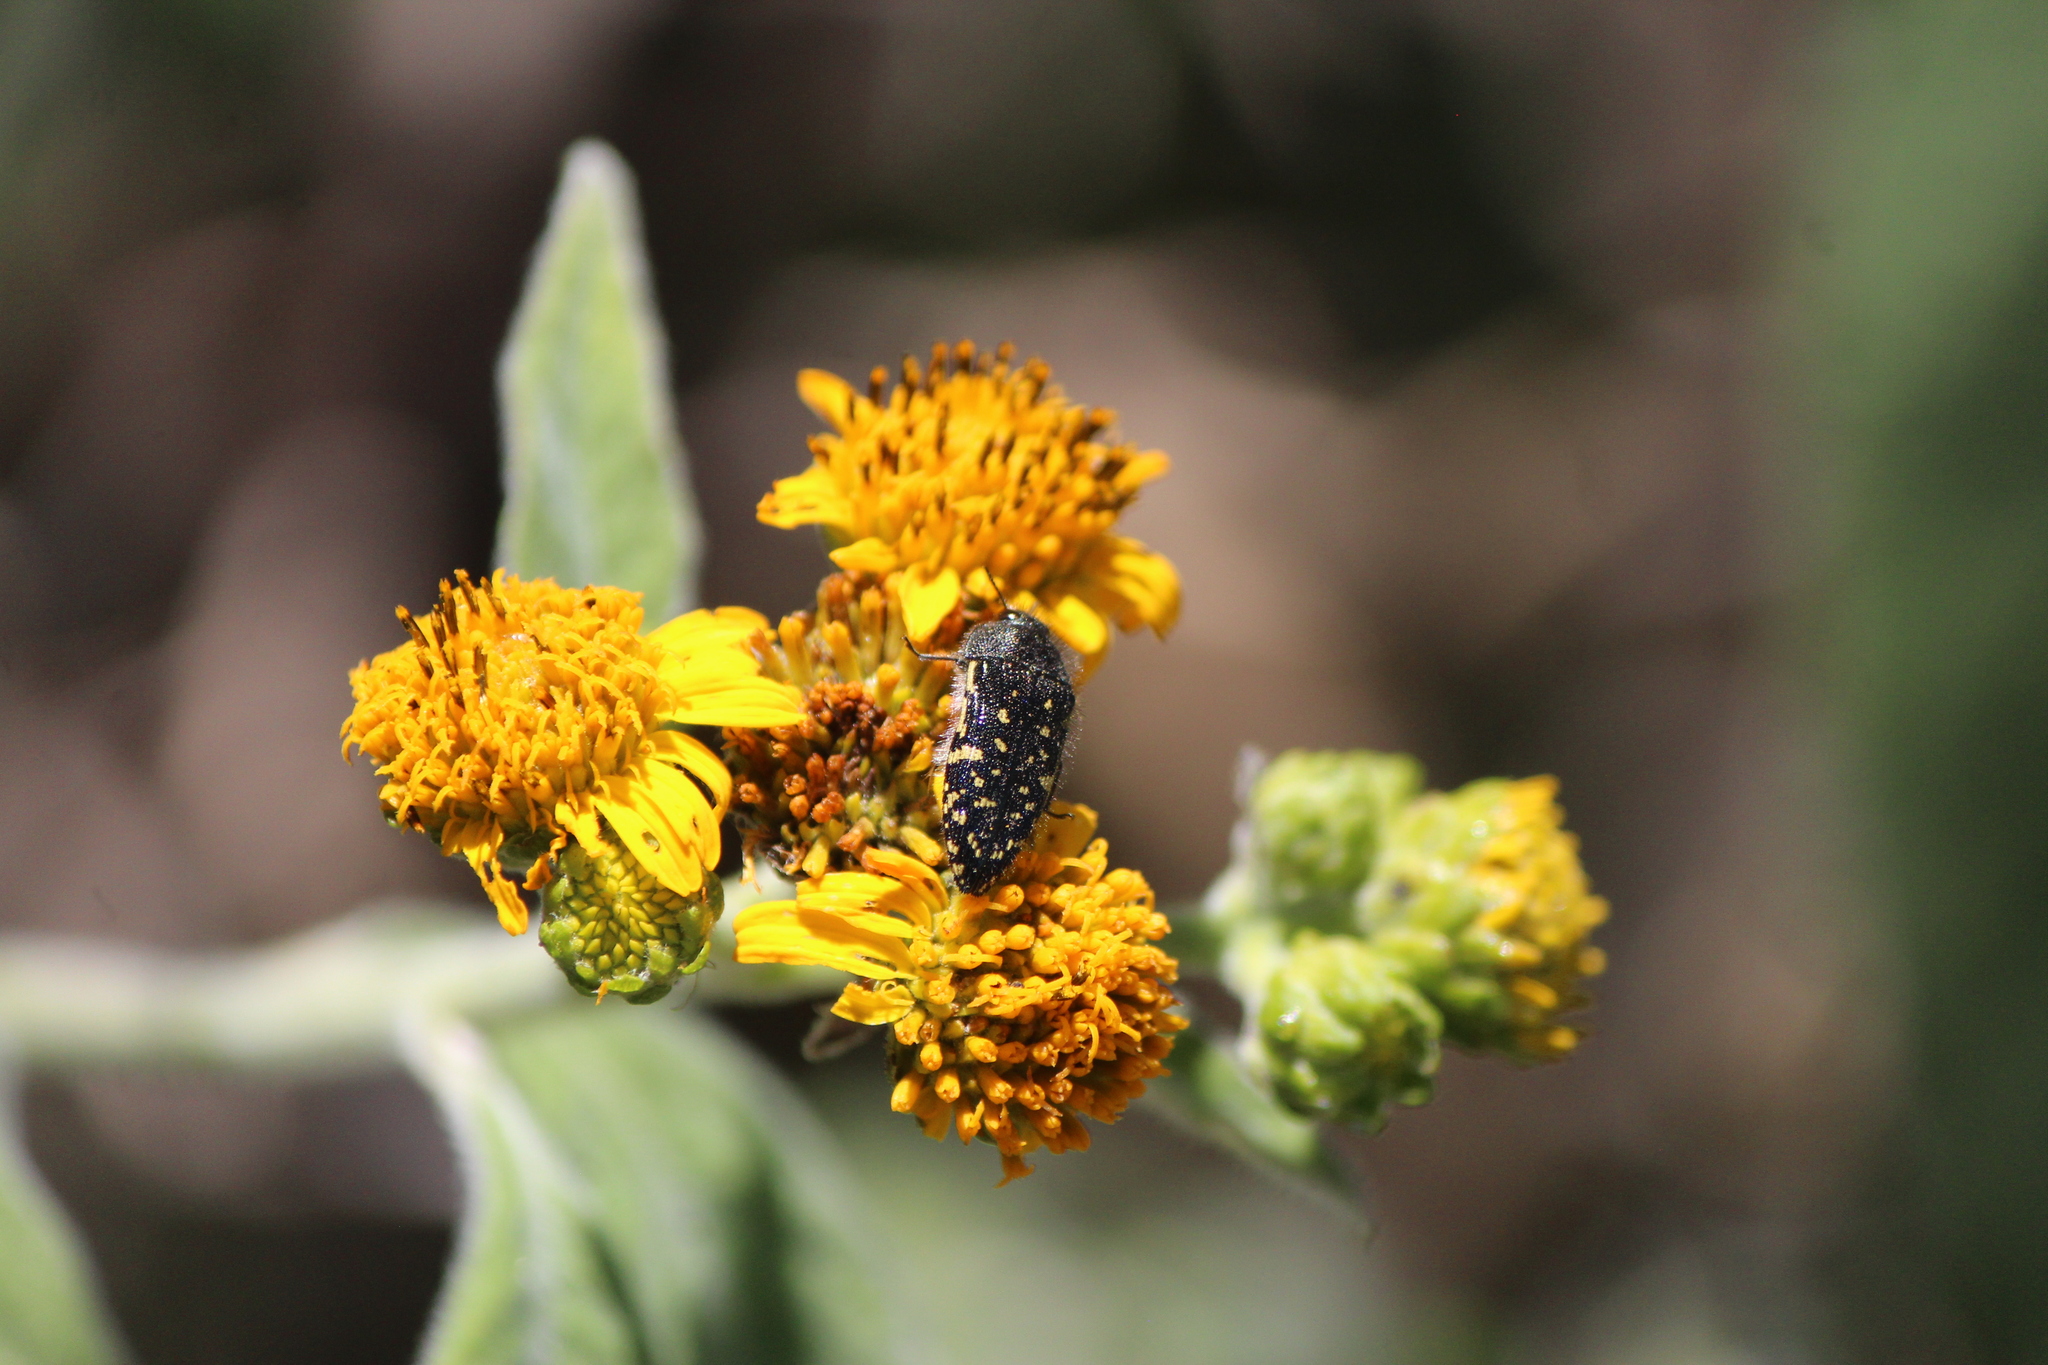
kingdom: Animalia
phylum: Arthropoda
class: Insecta
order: Coleoptera
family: Buprestidae
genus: Acmaeodera
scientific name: Acmaeodera flavopicta
